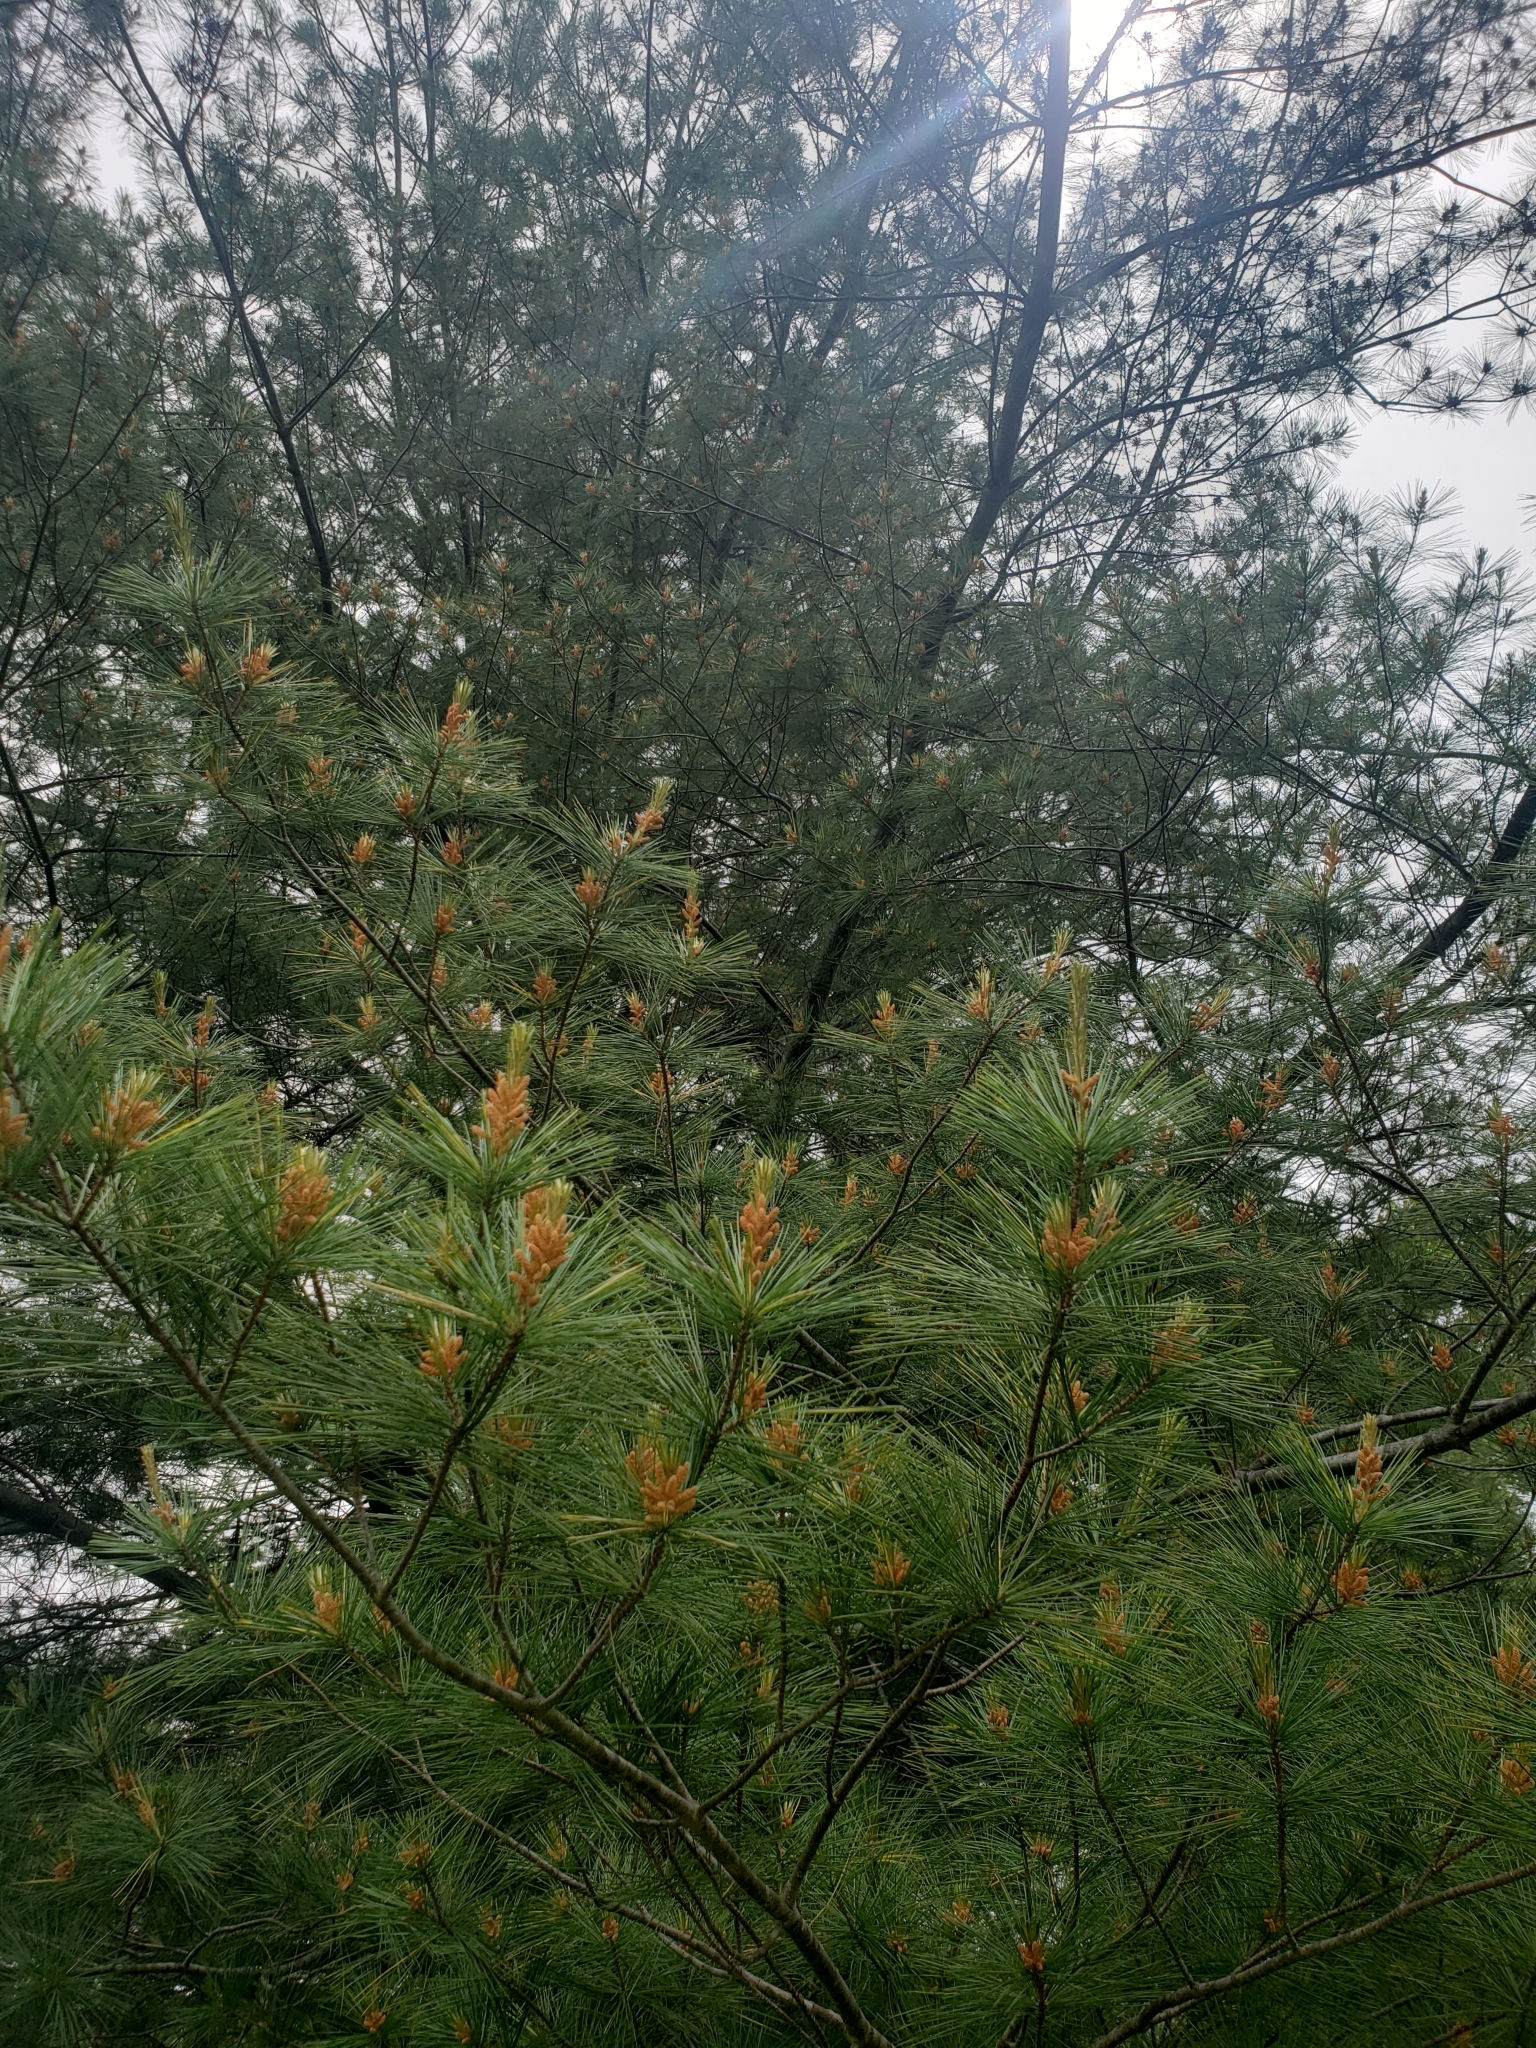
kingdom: Plantae
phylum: Tracheophyta
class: Pinopsida
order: Pinales
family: Pinaceae
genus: Pinus
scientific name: Pinus strobus
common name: Weymouth pine
